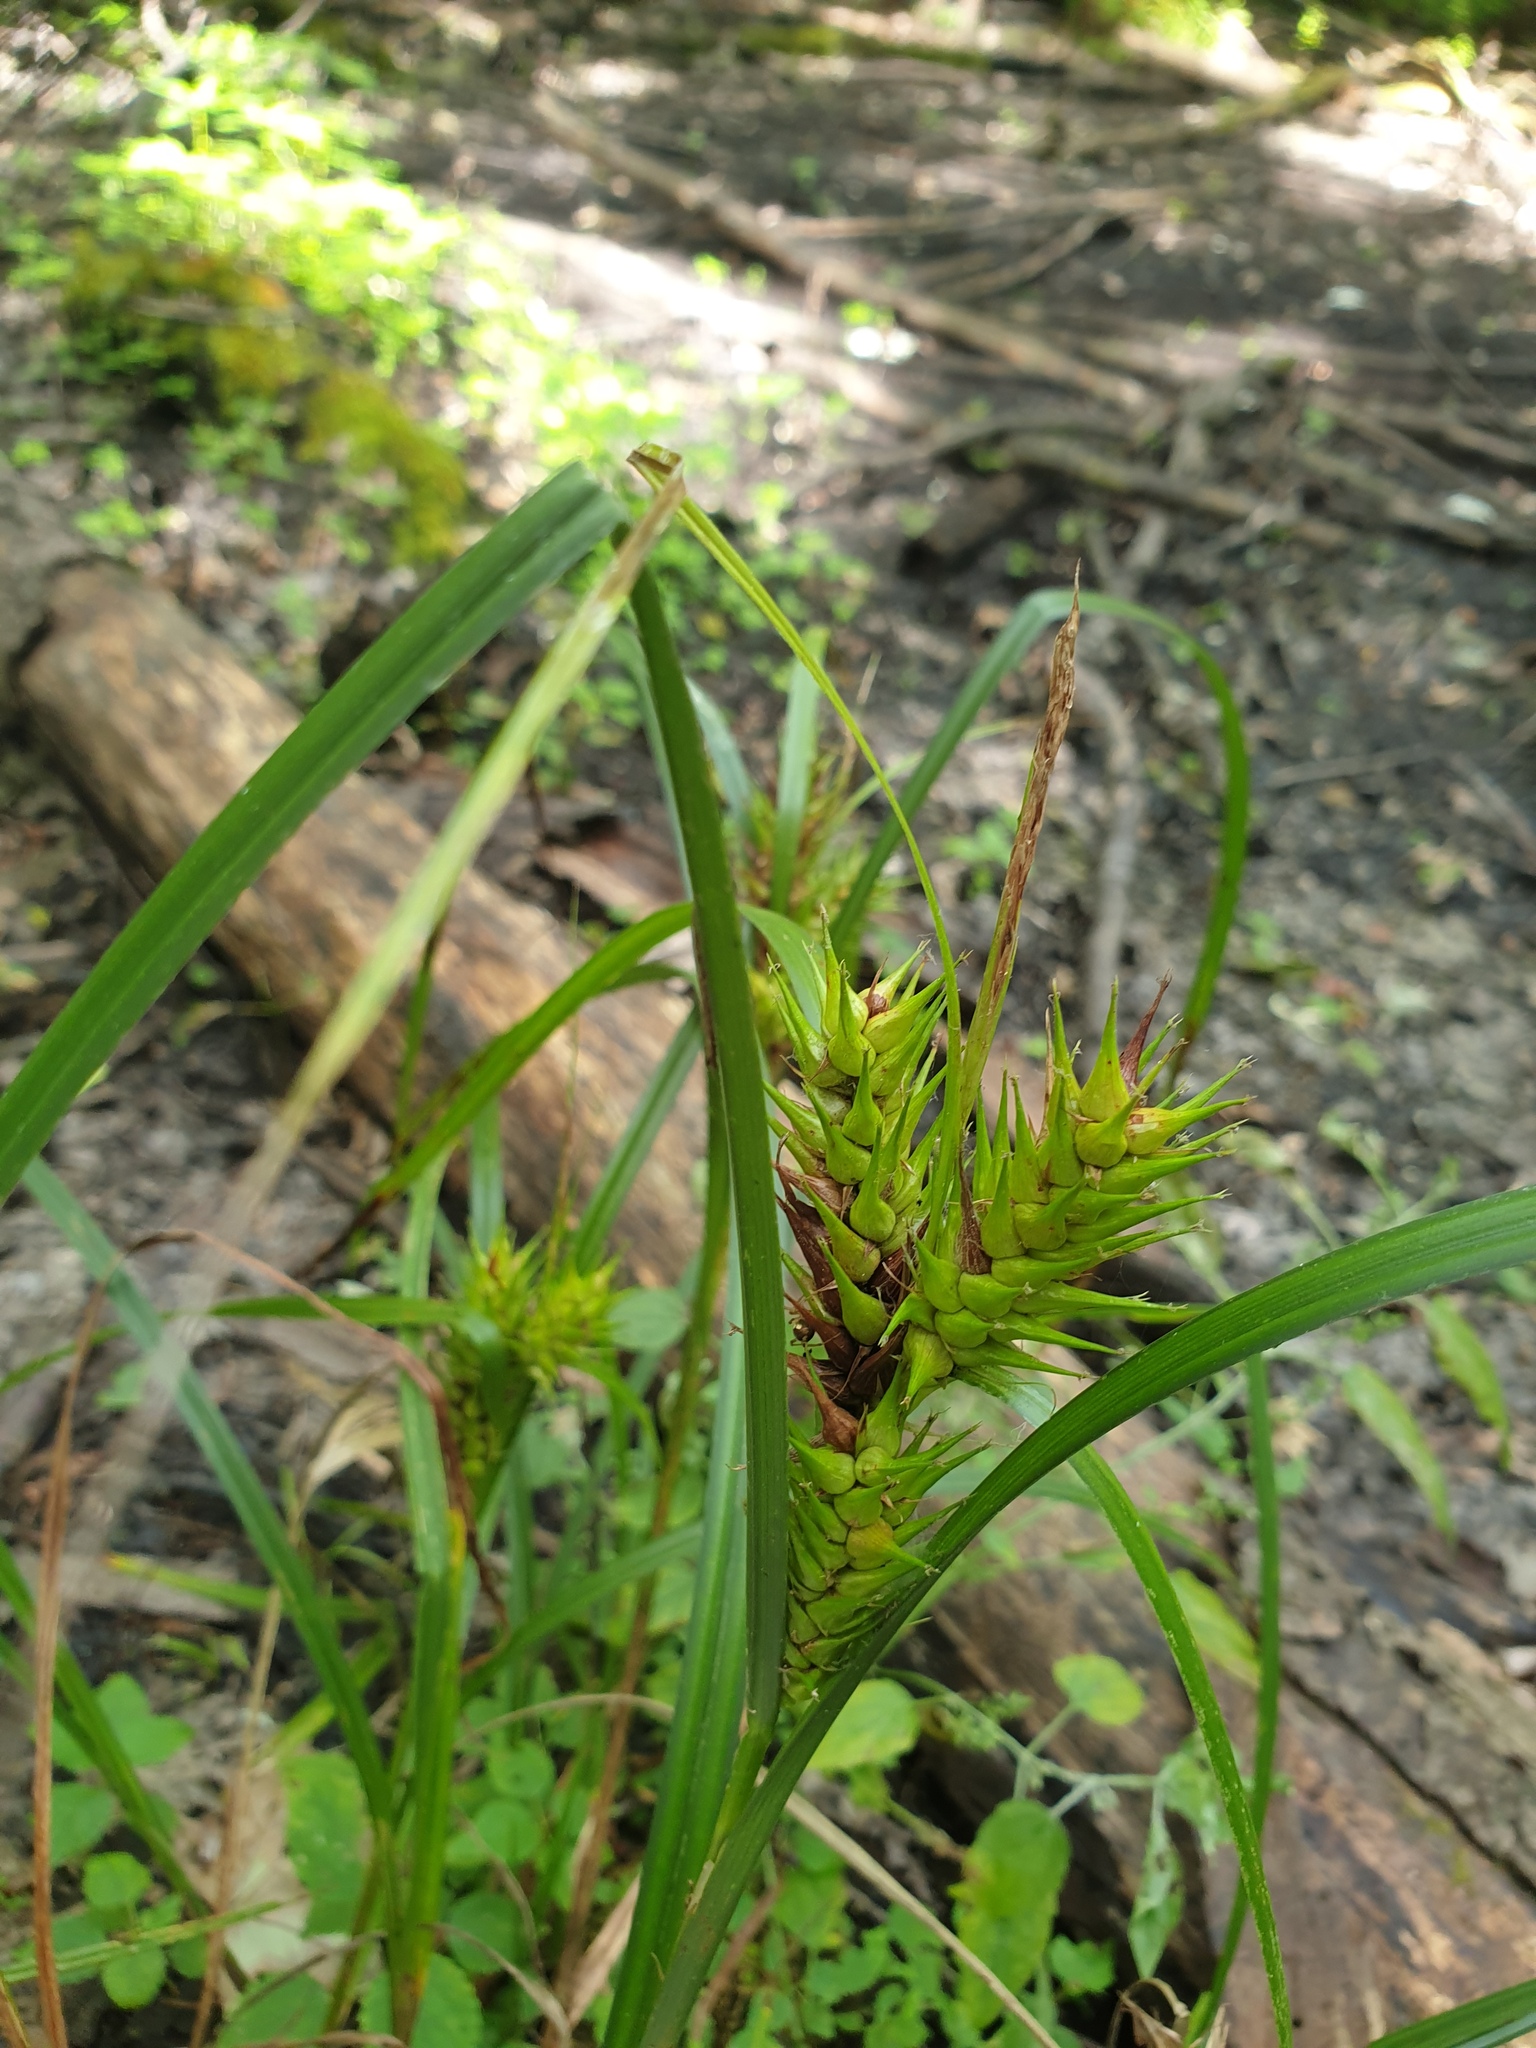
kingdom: Plantae
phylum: Tracheophyta
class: Liliopsida
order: Poales
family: Cyperaceae
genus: Carex
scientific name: Carex lupulina
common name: Hop sedge
